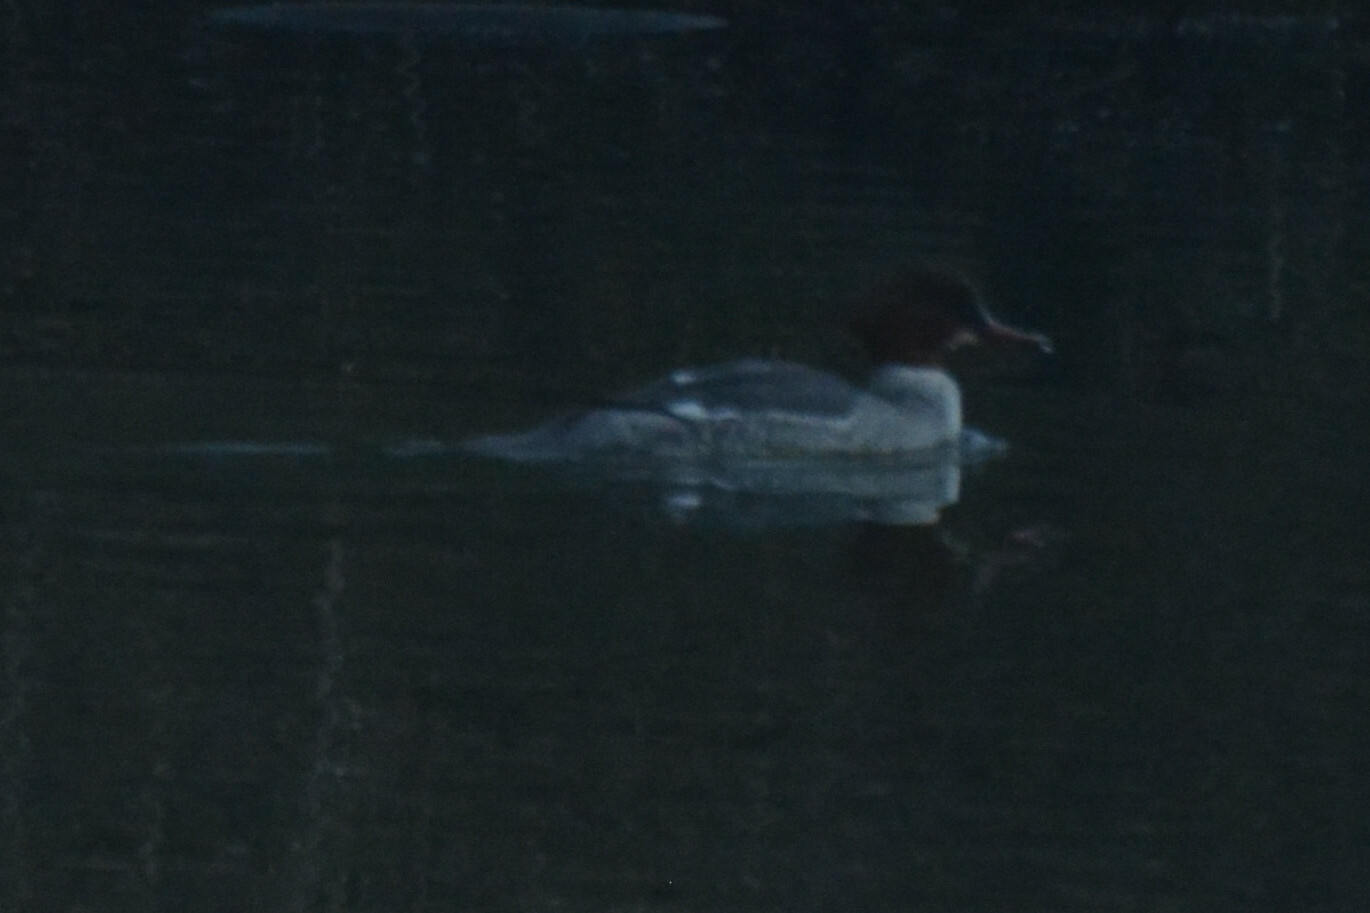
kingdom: Animalia
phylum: Chordata
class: Aves
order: Anseriformes
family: Anatidae
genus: Mergus
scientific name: Mergus merganser
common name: Common merganser
